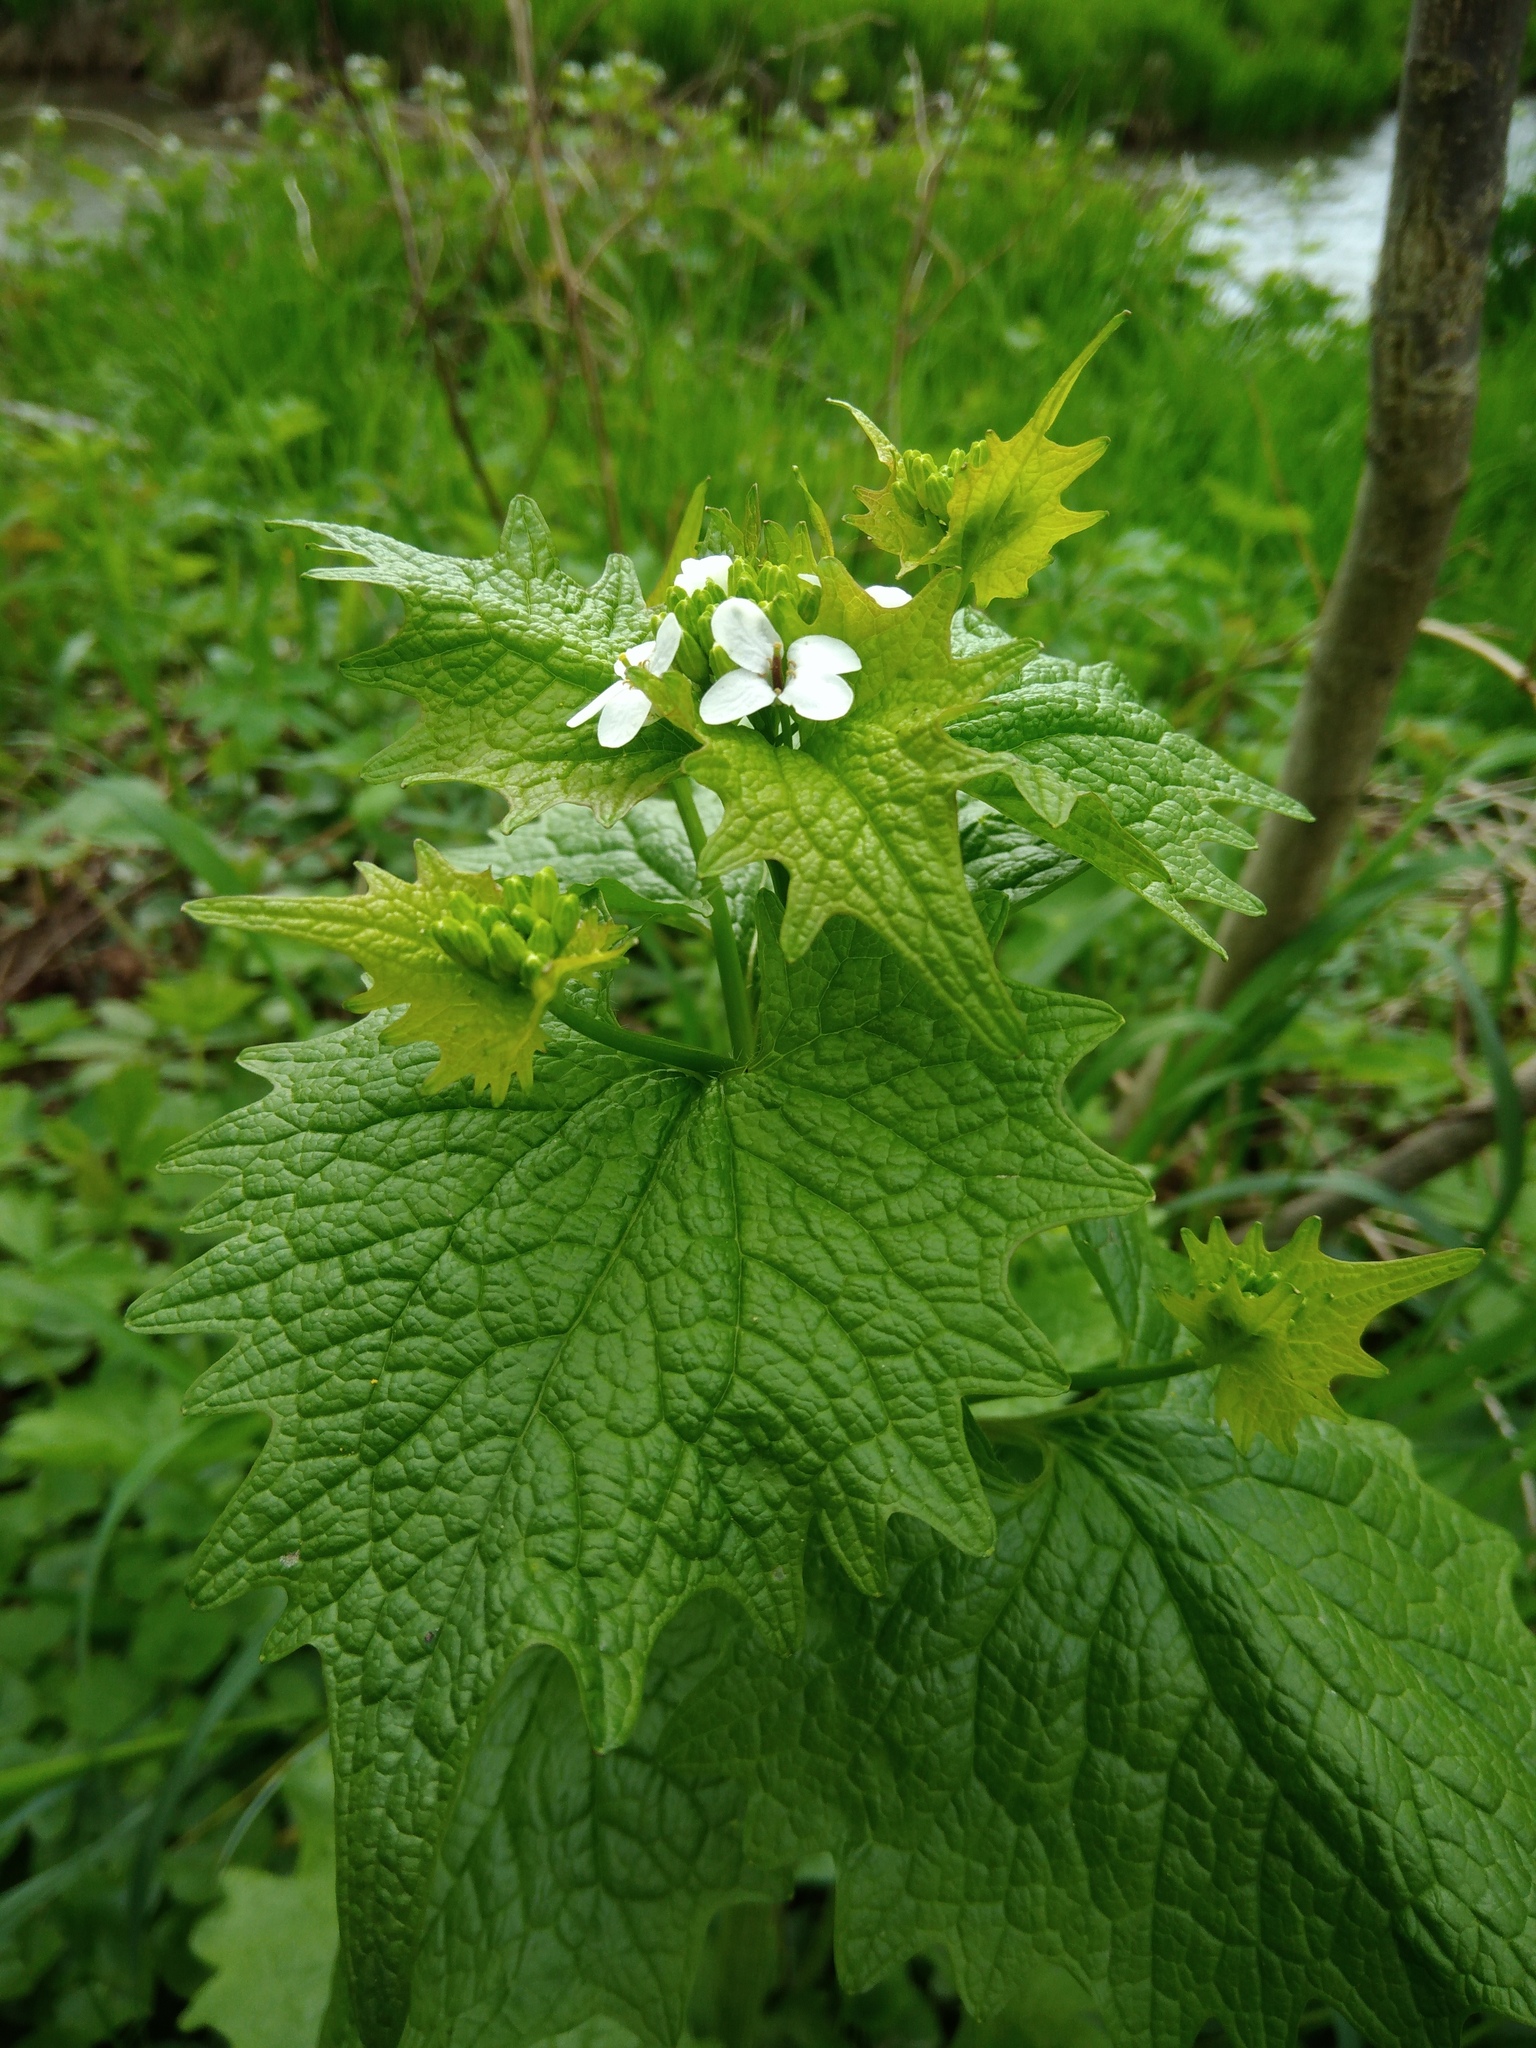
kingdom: Plantae
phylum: Tracheophyta
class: Magnoliopsida
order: Brassicales
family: Brassicaceae
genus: Alliaria
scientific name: Alliaria petiolata
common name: Garlic mustard
